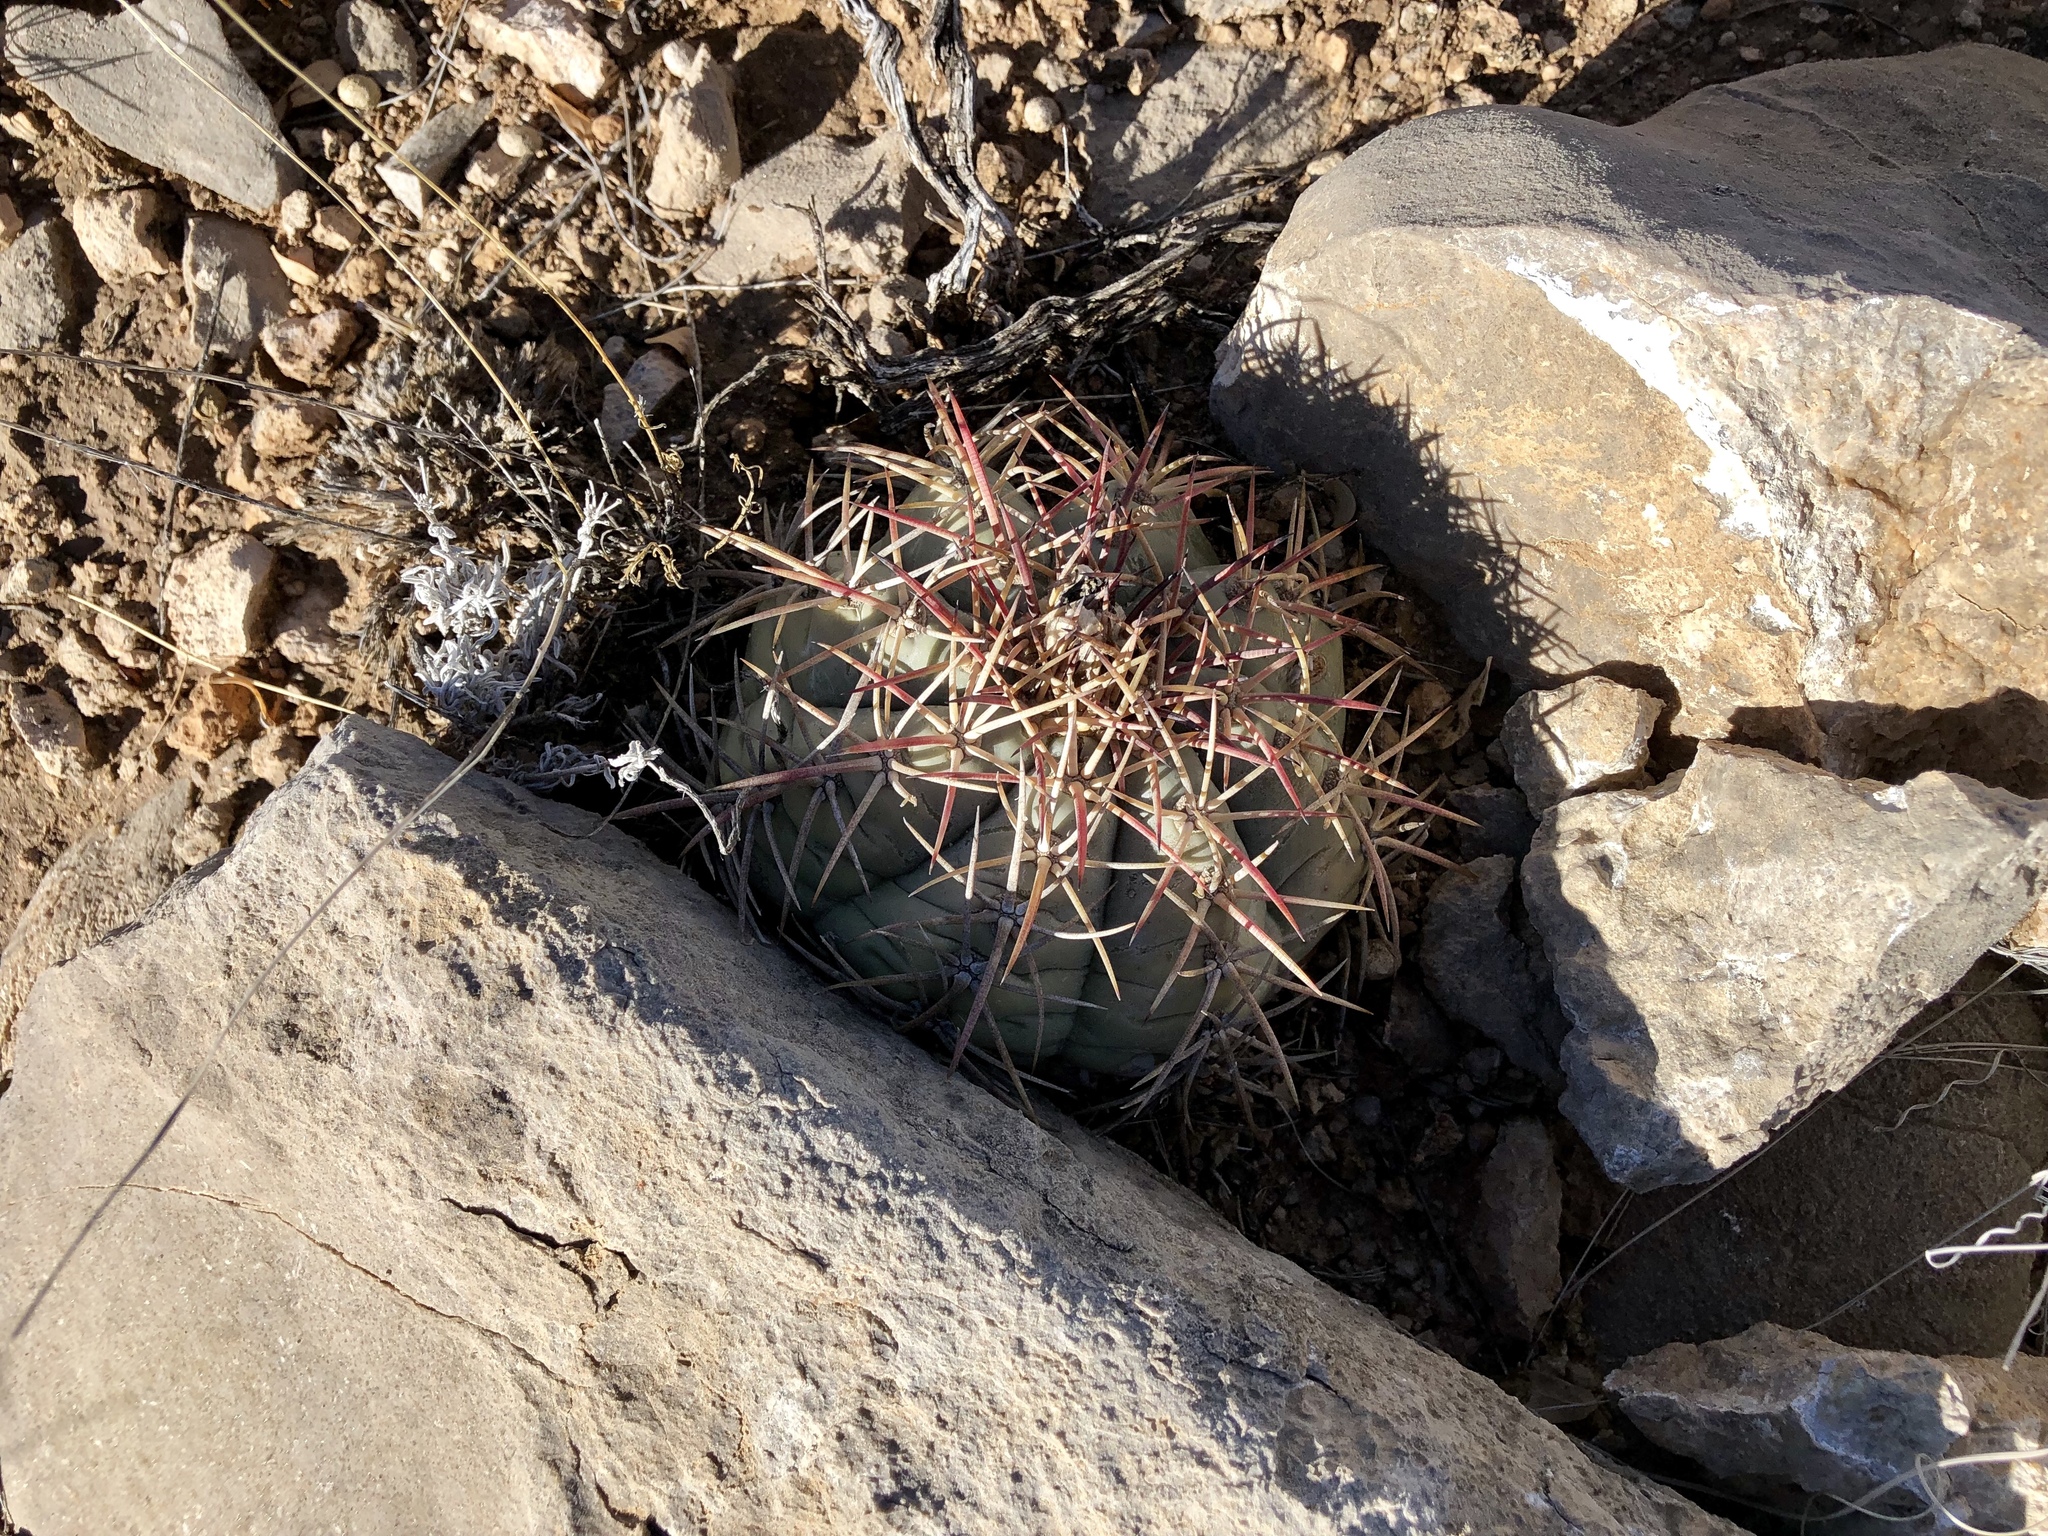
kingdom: Plantae
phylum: Tracheophyta
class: Magnoliopsida
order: Caryophyllales
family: Cactaceae
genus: Echinocactus
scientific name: Echinocactus horizonthalonius
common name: Devilshead
